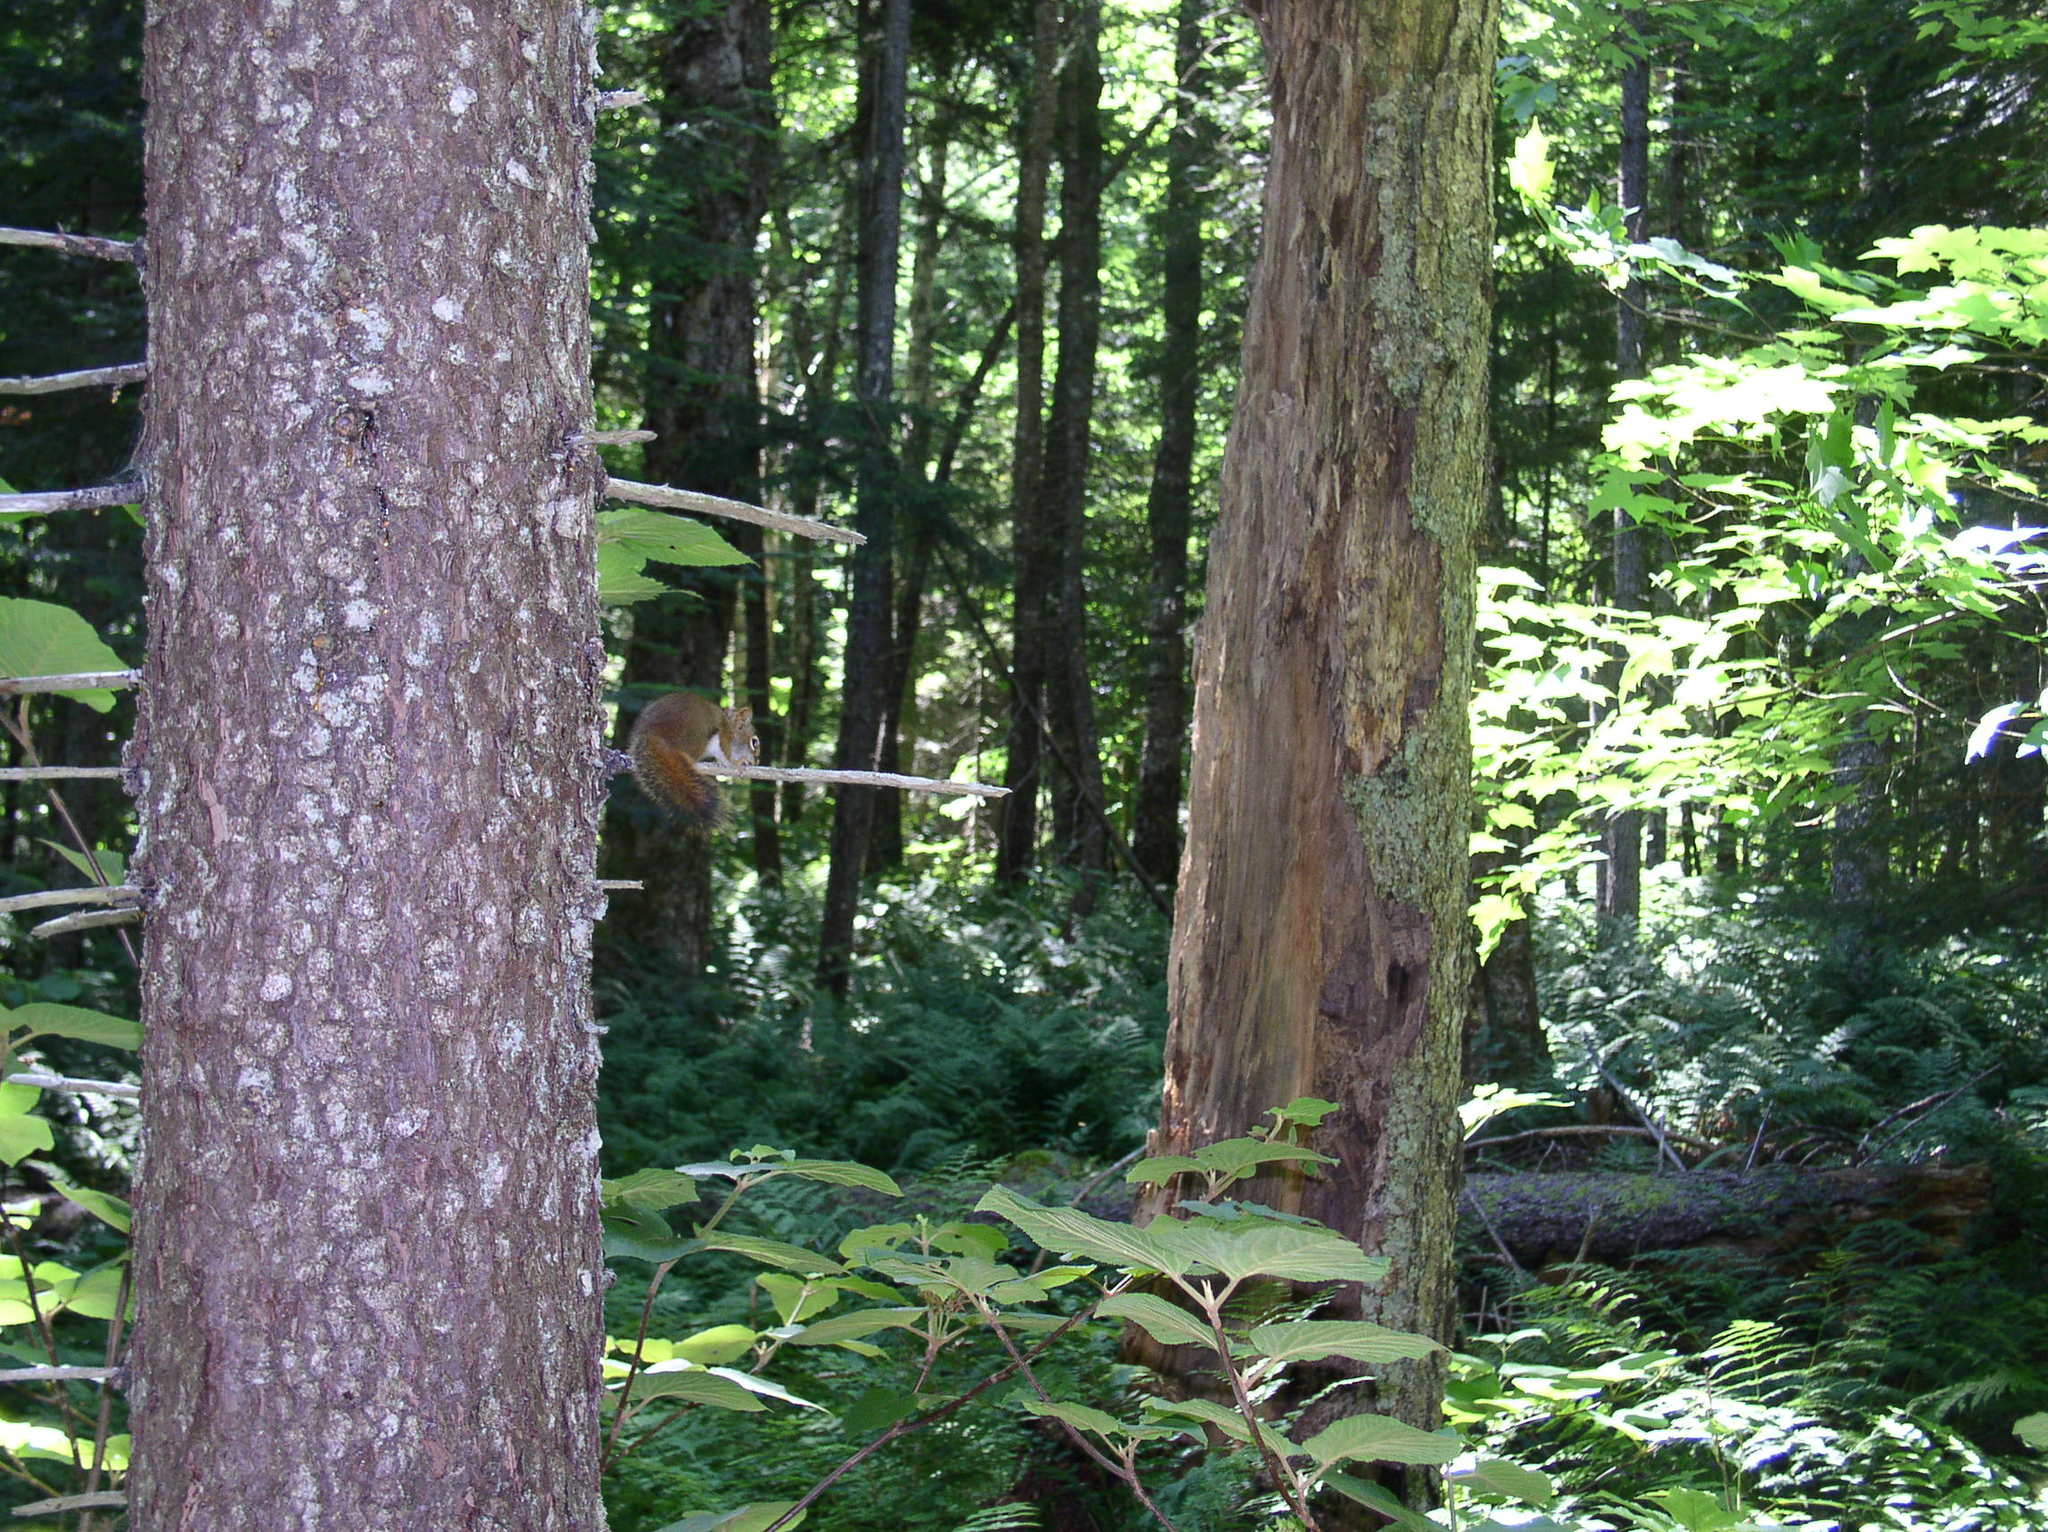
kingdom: Animalia
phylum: Chordata
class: Mammalia
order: Rodentia
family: Sciuridae
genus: Tamiasciurus
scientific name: Tamiasciurus hudsonicus
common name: Red squirrel
